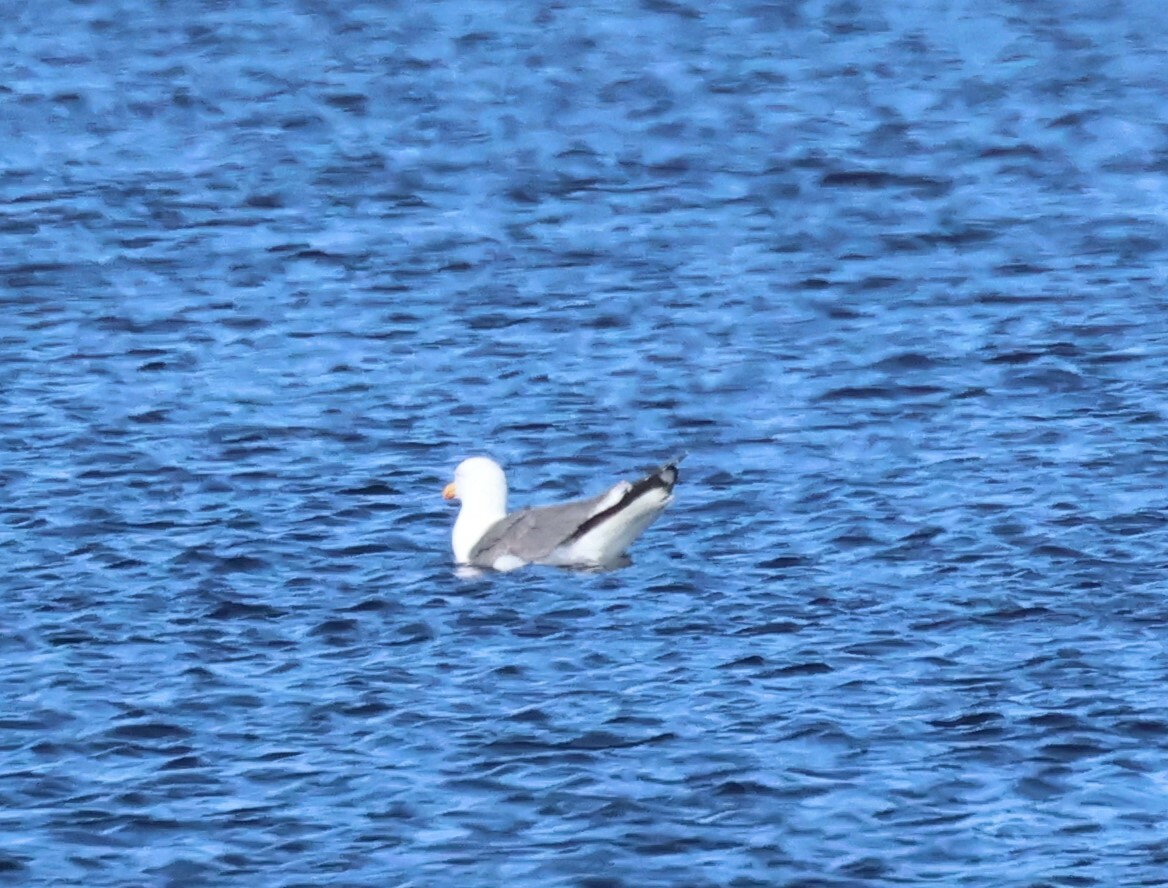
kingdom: Animalia
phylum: Chordata
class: Aves
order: Charadriiformes
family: Laridae
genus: Larus
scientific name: Larus fuscus
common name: Lesser black-backed gull
